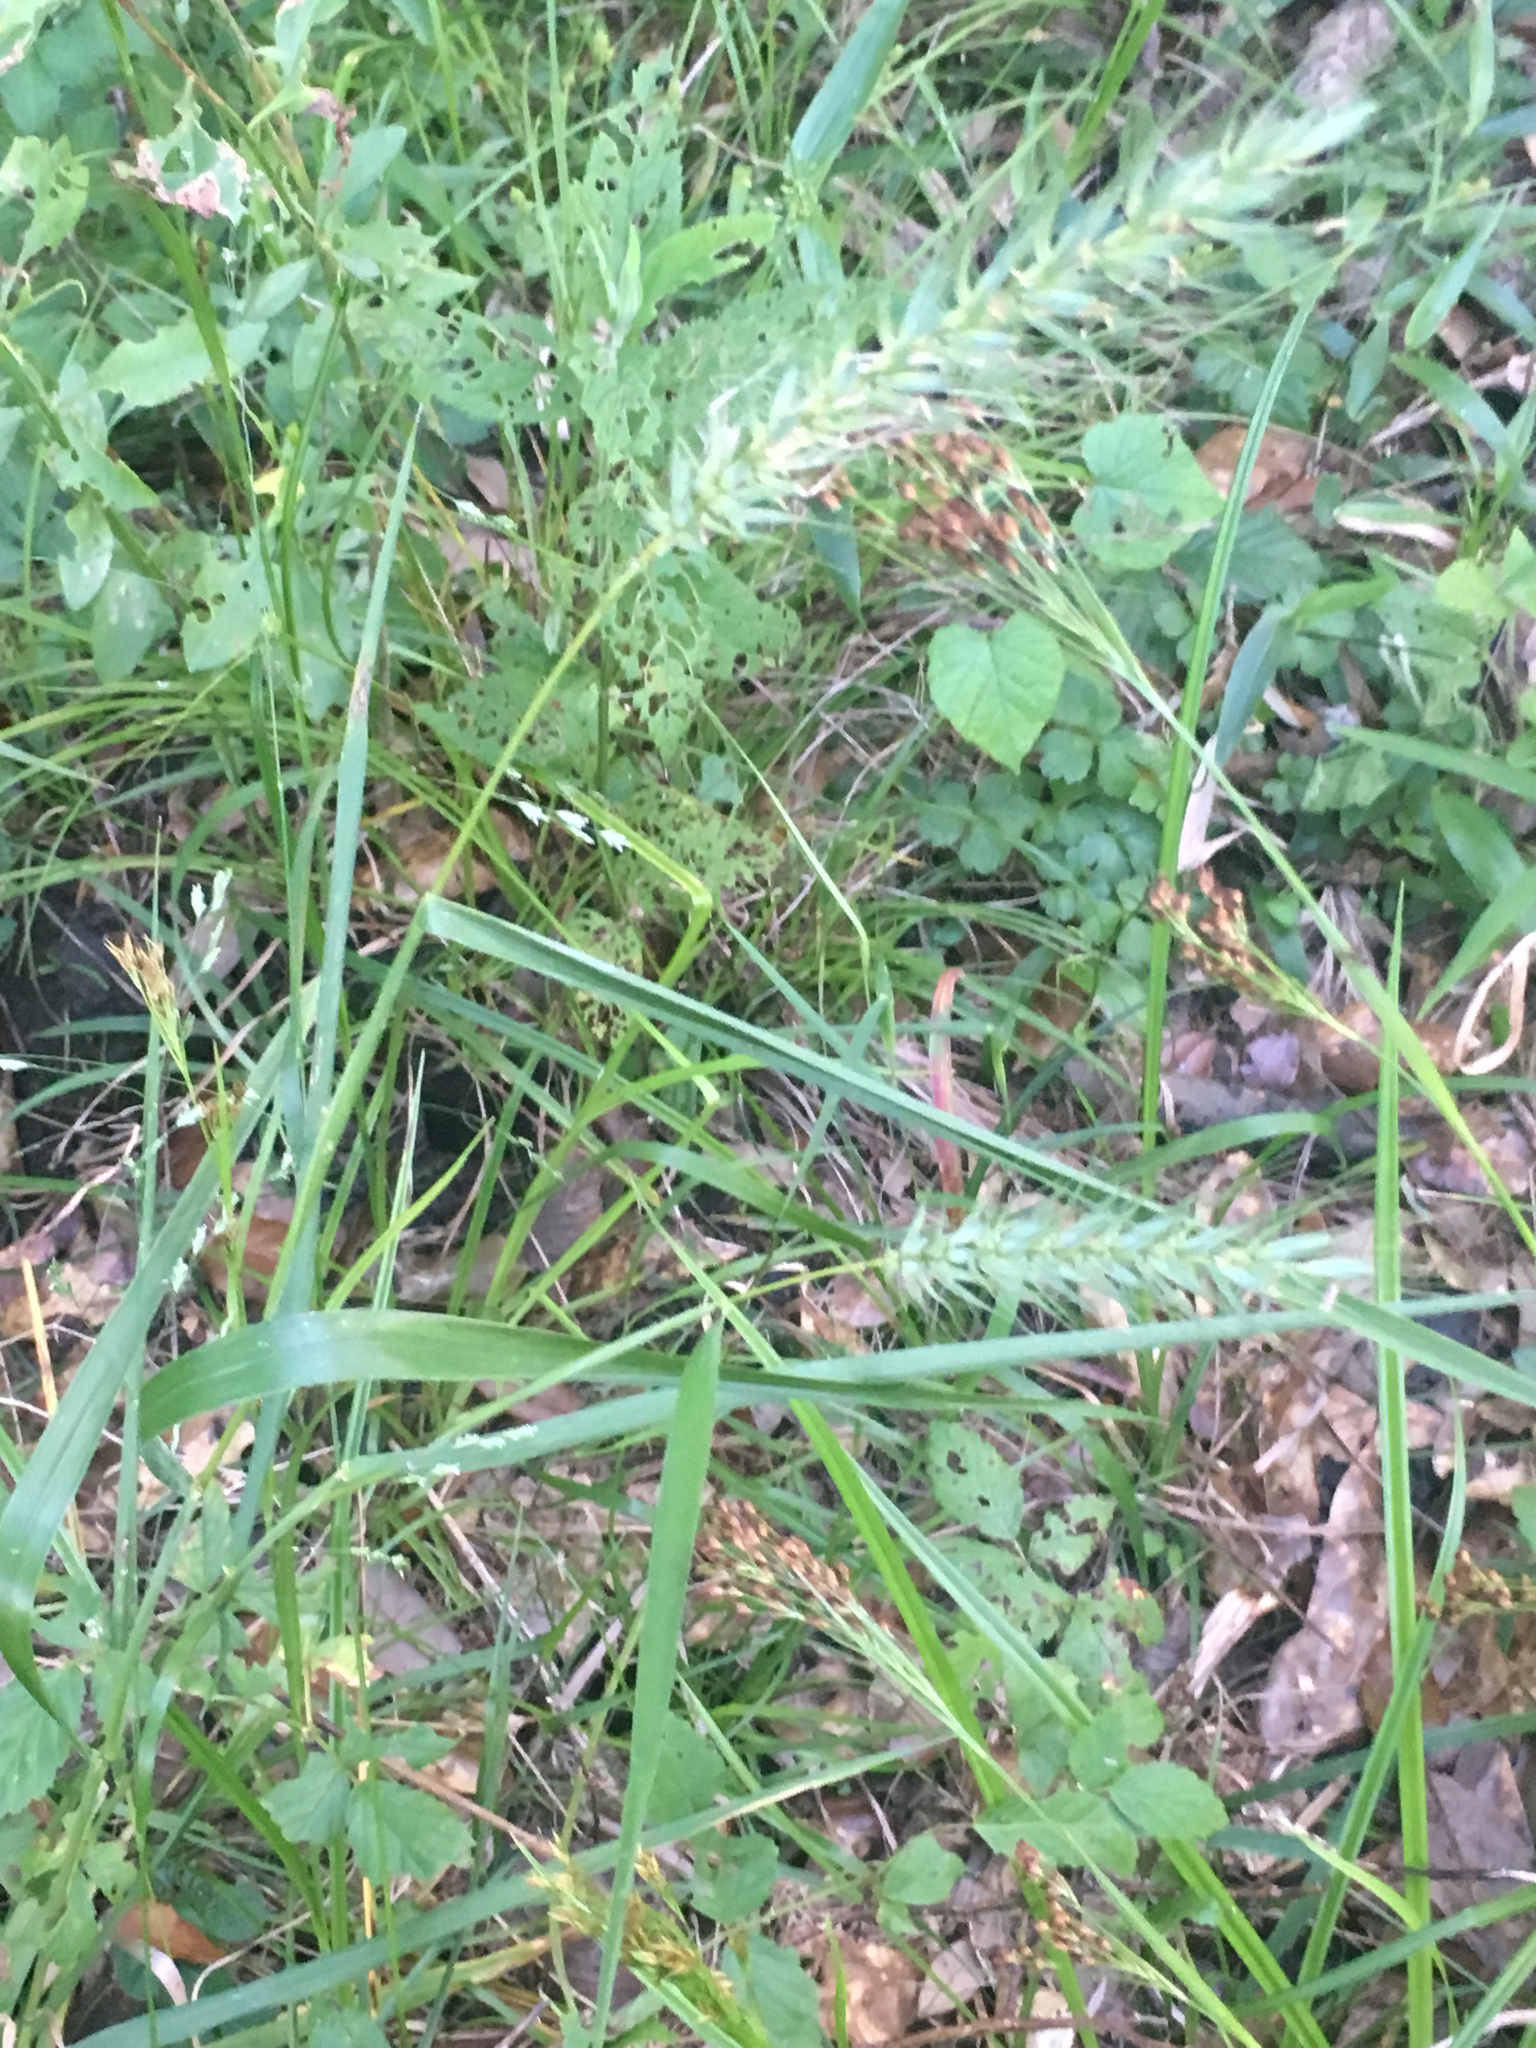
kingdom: Plantae
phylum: Tracheophyta
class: Liliopsida
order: Poales
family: Poaceae
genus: Elymus
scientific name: Elymus virginicus
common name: Common eastern wildrye
